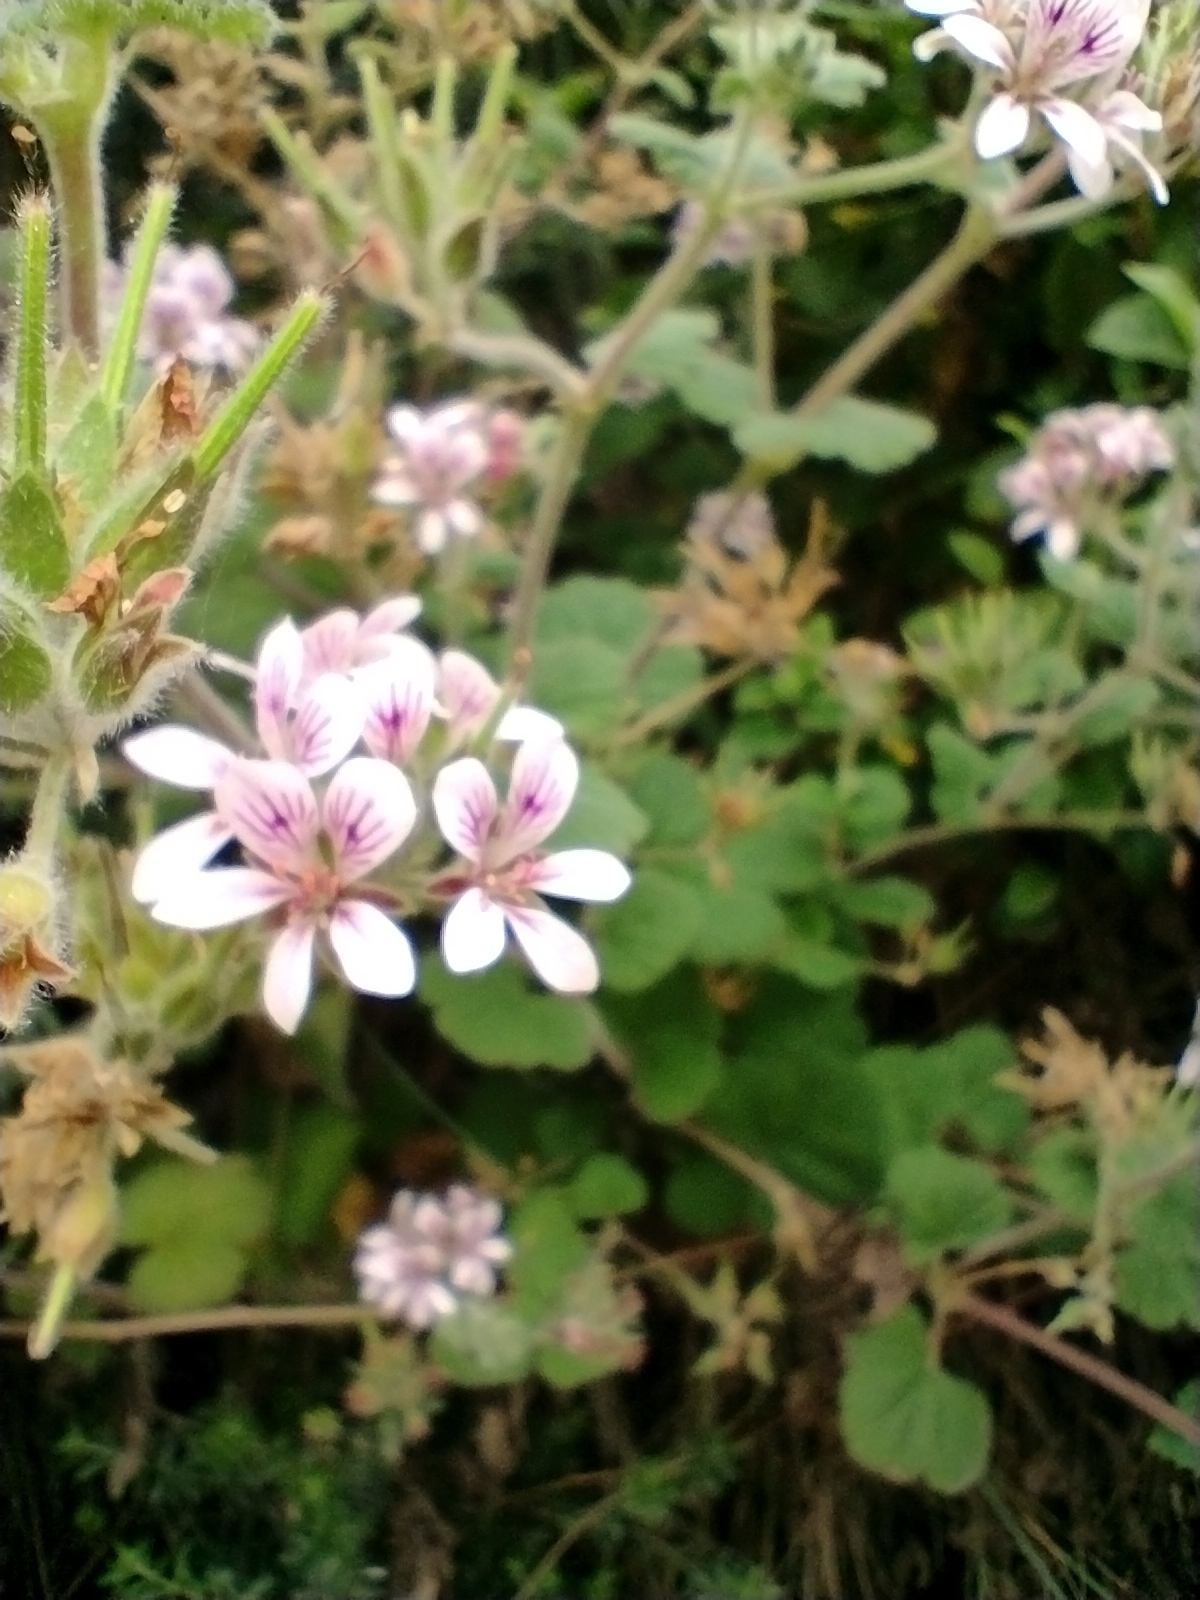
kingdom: Plantae
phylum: Tracheophyta
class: Magnoliopsida
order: Geraniales
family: Geraniaceae
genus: Pelargonium
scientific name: Pelargonium australe
